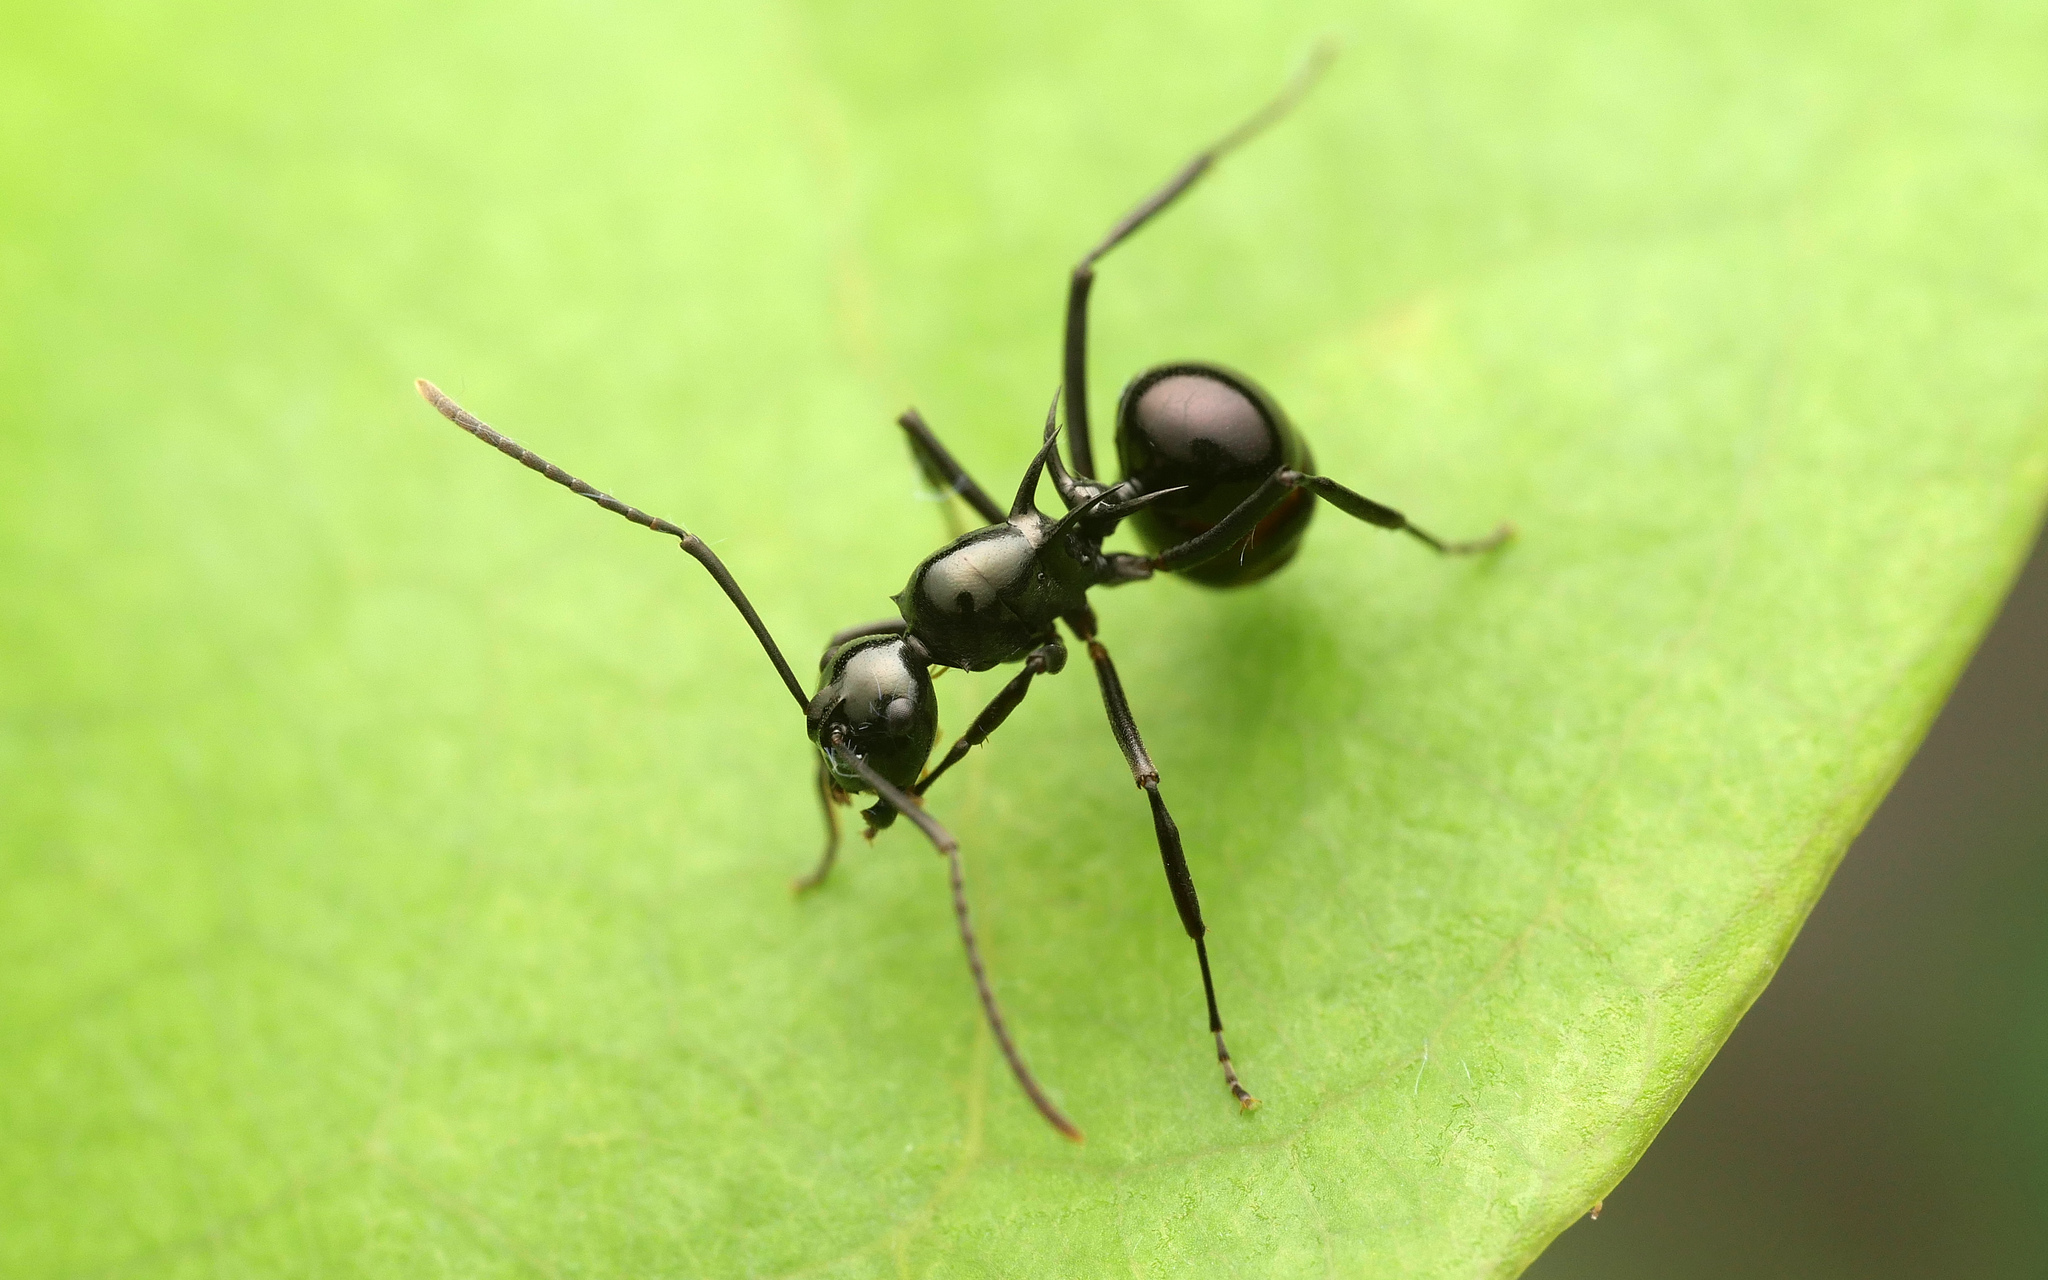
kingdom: Animalia
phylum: Arthropoda
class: Insecta
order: Hymenoptera
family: Formicidae
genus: Polyrhachis
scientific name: Polyrhachis mucronata
